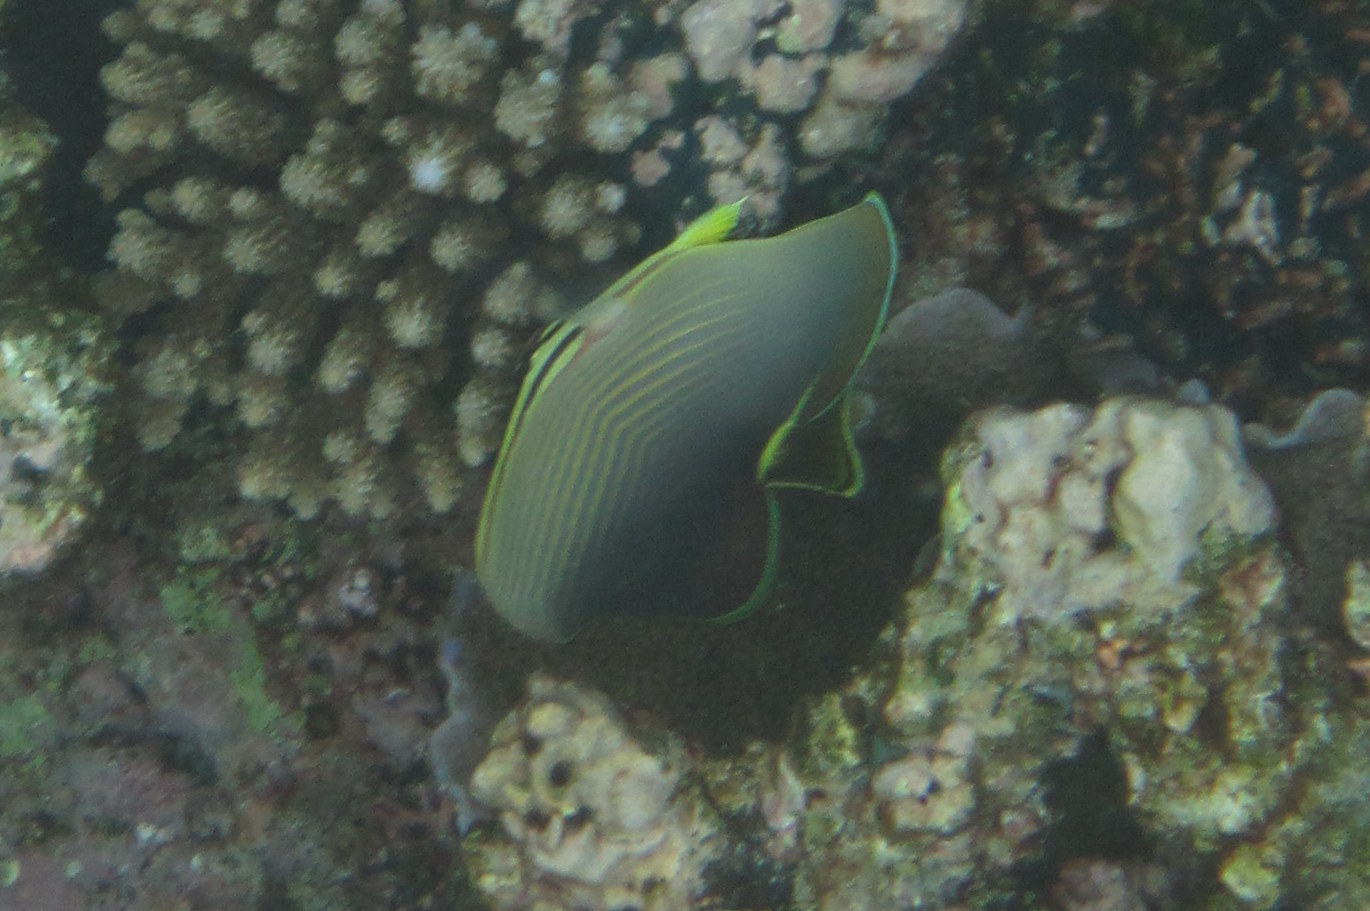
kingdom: Animalia
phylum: Chordata
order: Perciformes
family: Chaetodontidae
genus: Chaetodon
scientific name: Chaetodon baronessa
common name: Triangular butterflyfish
